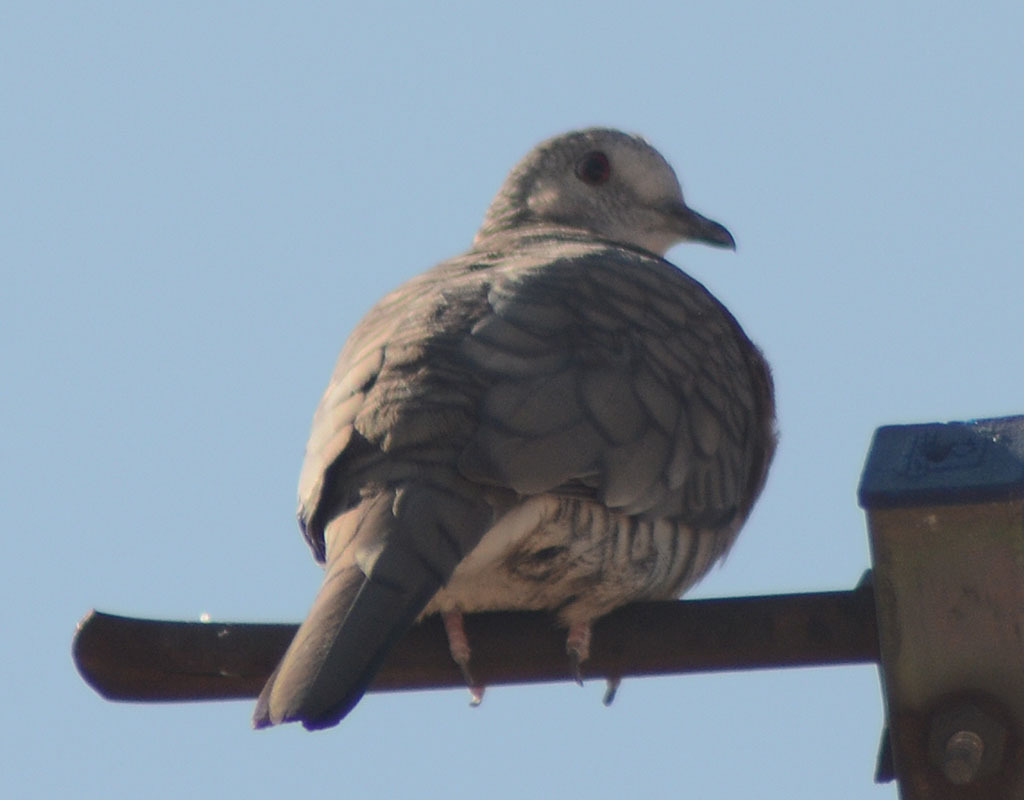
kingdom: Animalia
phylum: Chordata
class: Aves
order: Columbiformes
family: Columbidae
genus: Columbina
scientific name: Columbina inca
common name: Inca dove
